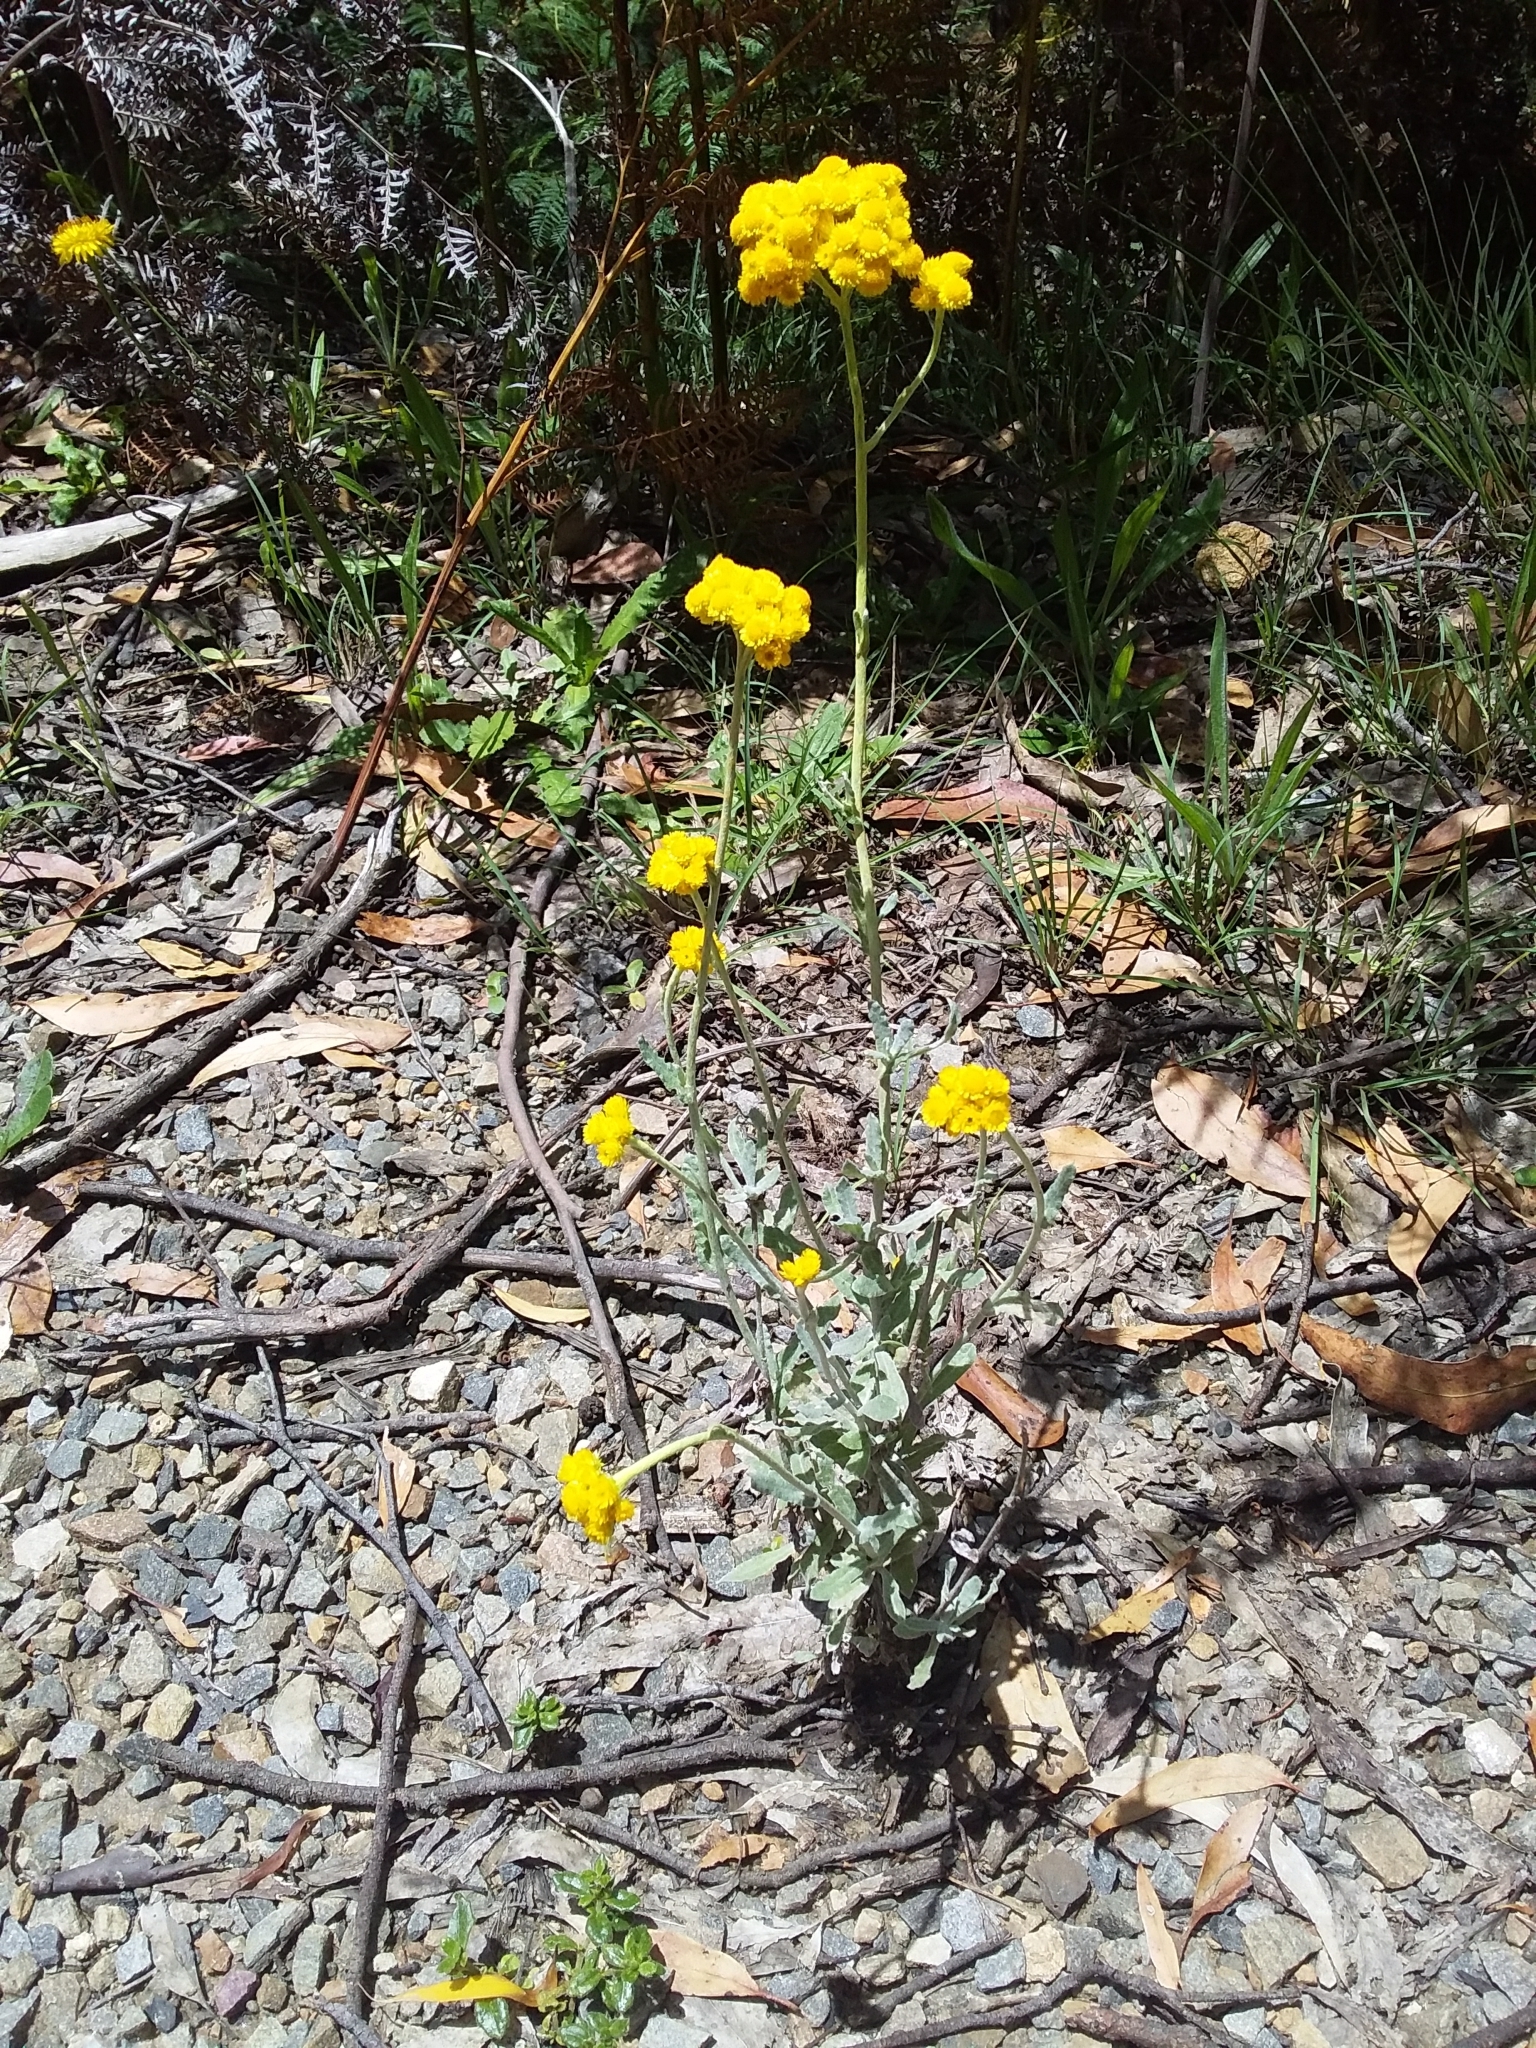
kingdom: Plantae
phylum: Tracheophyta
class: Magnoliopsida
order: Asterales
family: Asteraceae
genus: Chrysocephalum
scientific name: Chrysocephalum apiculatum
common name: Common everlasting
